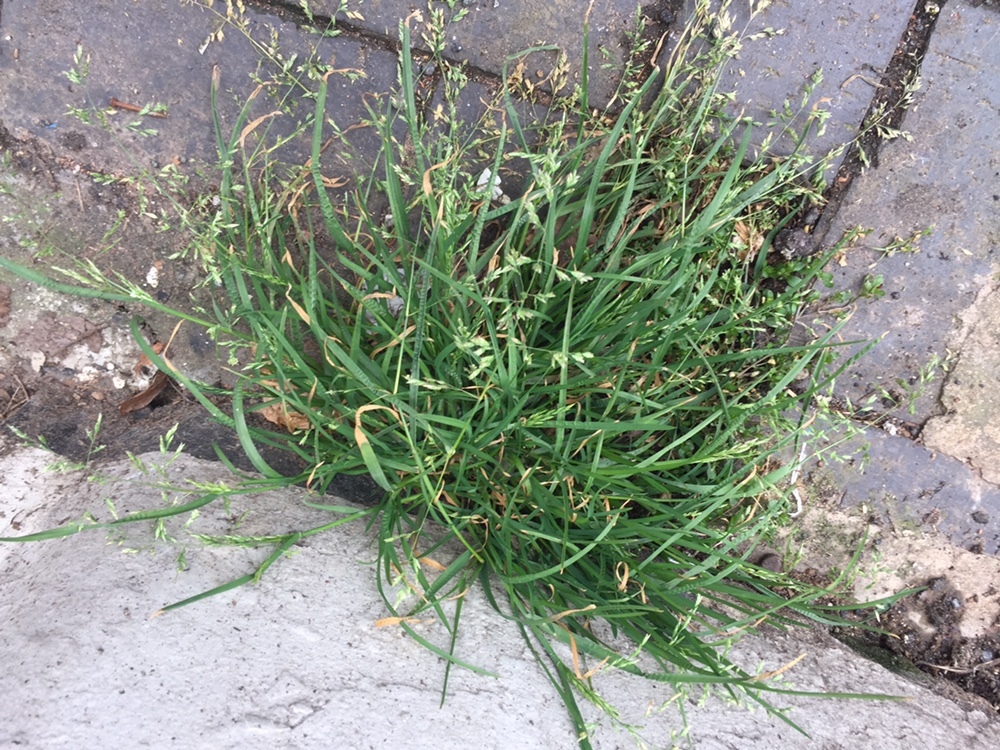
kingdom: Plantae
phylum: Tracheophyta
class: Liliopsida
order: Poales
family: Poaceae
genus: Poa
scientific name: Poa annua
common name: Annual bluegrass
